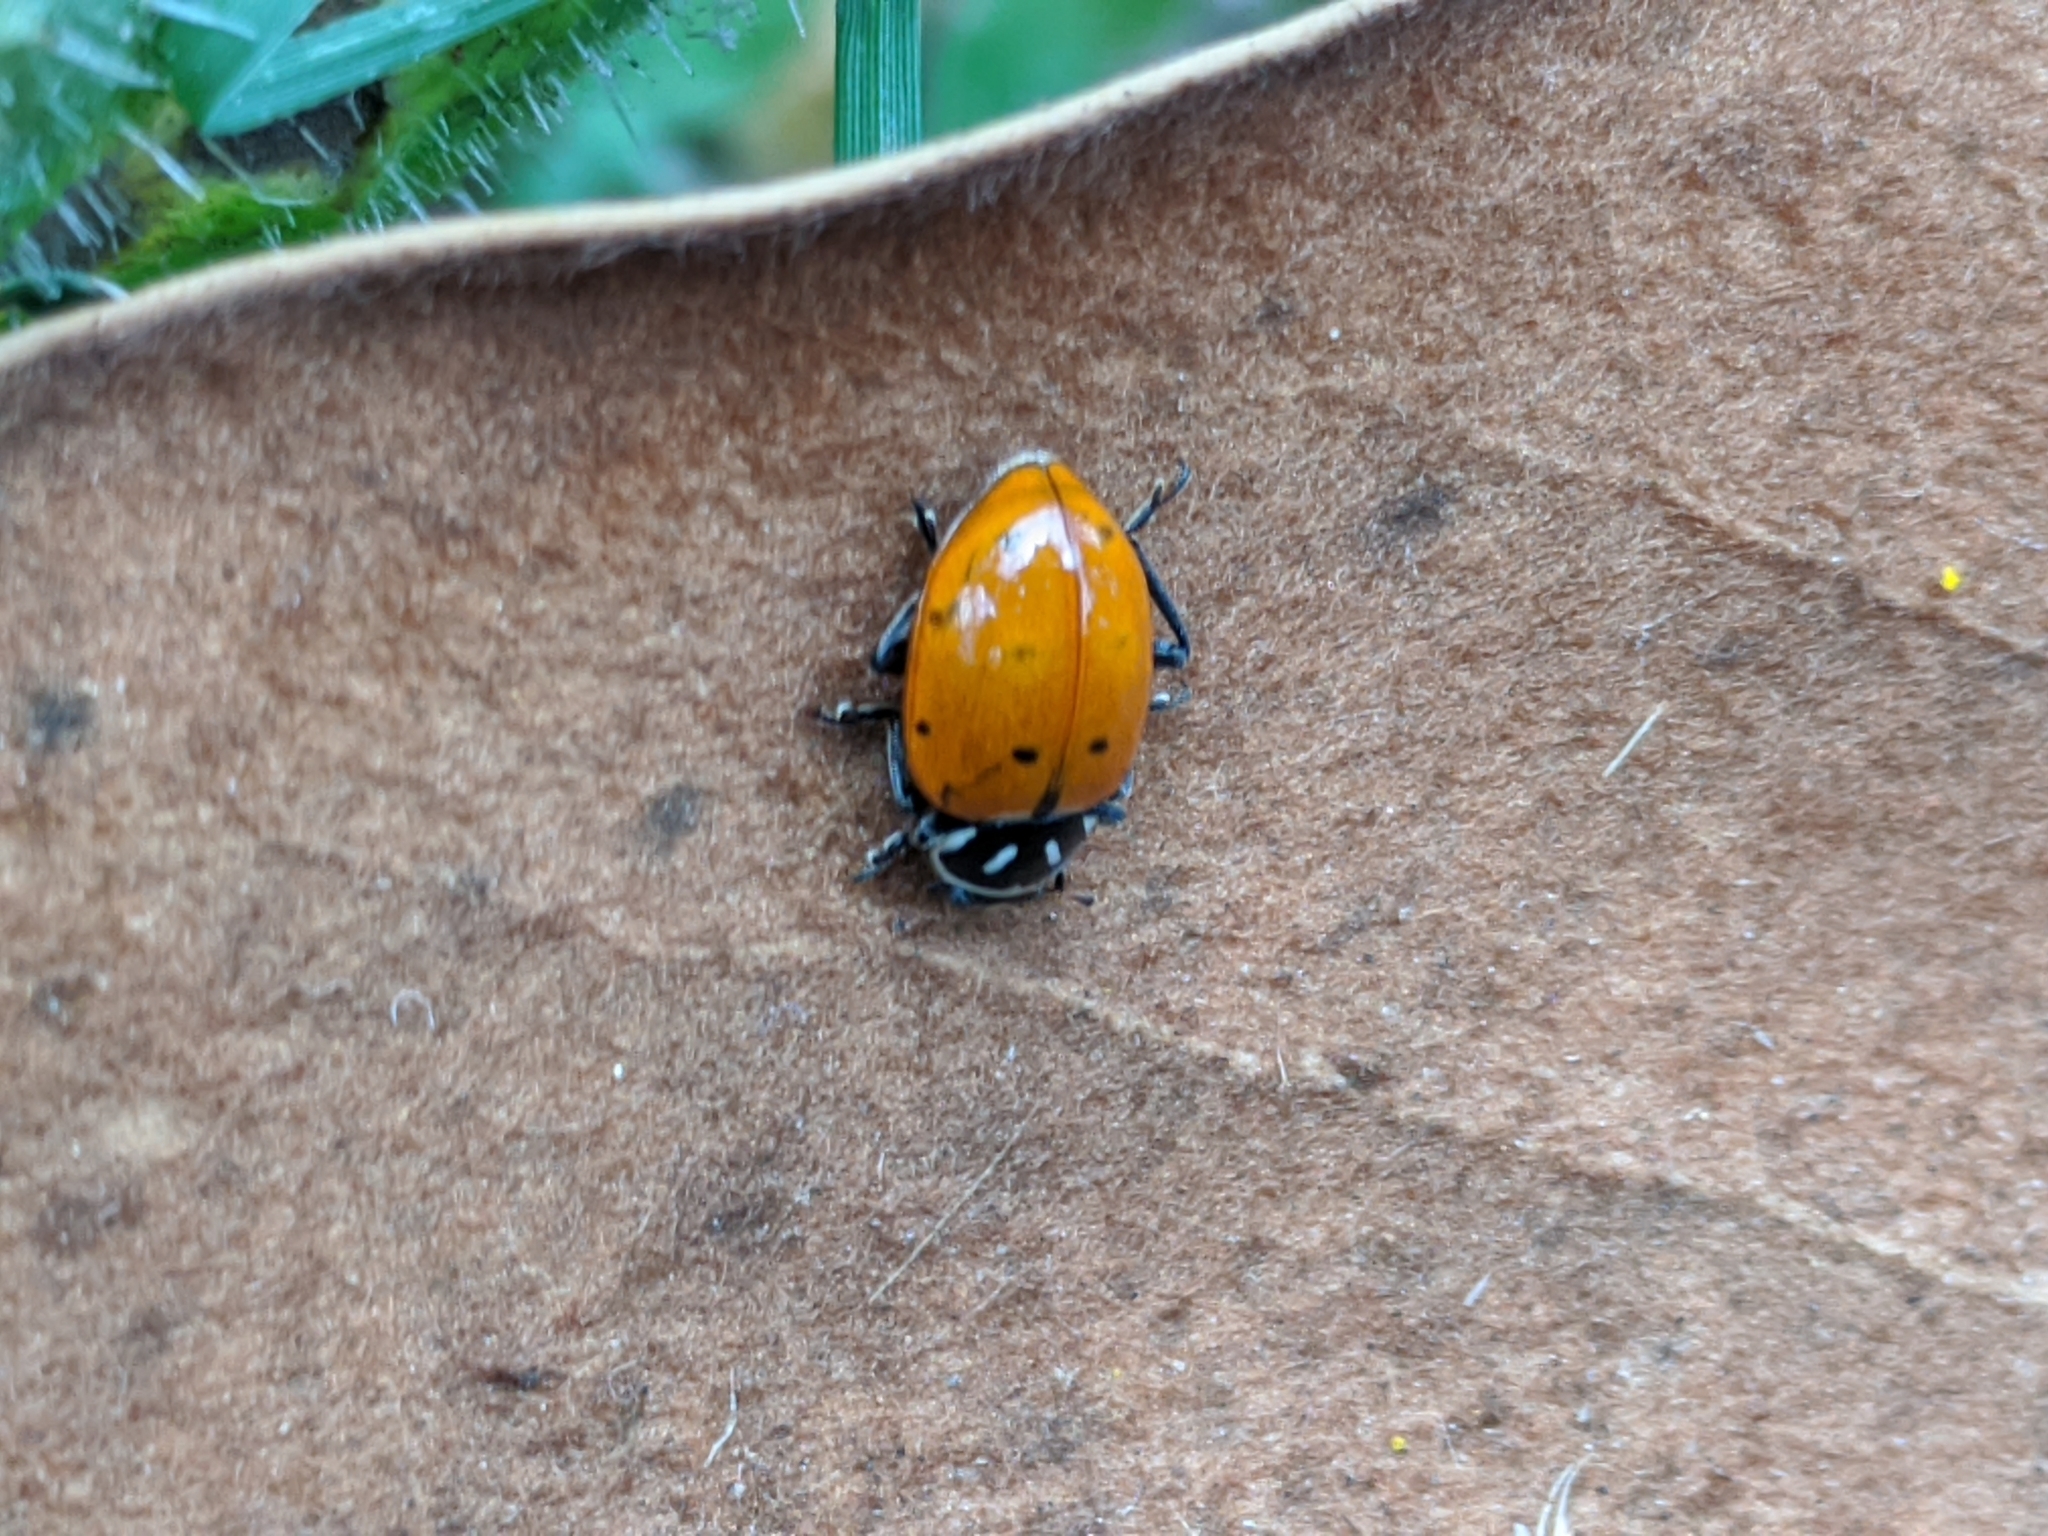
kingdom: Animalia
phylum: Arthropoda
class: Insecta
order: Coleoptera
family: Coccinellidae
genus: Hippodamia
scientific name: Hippodamia convergens
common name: Convergent lady beetle
